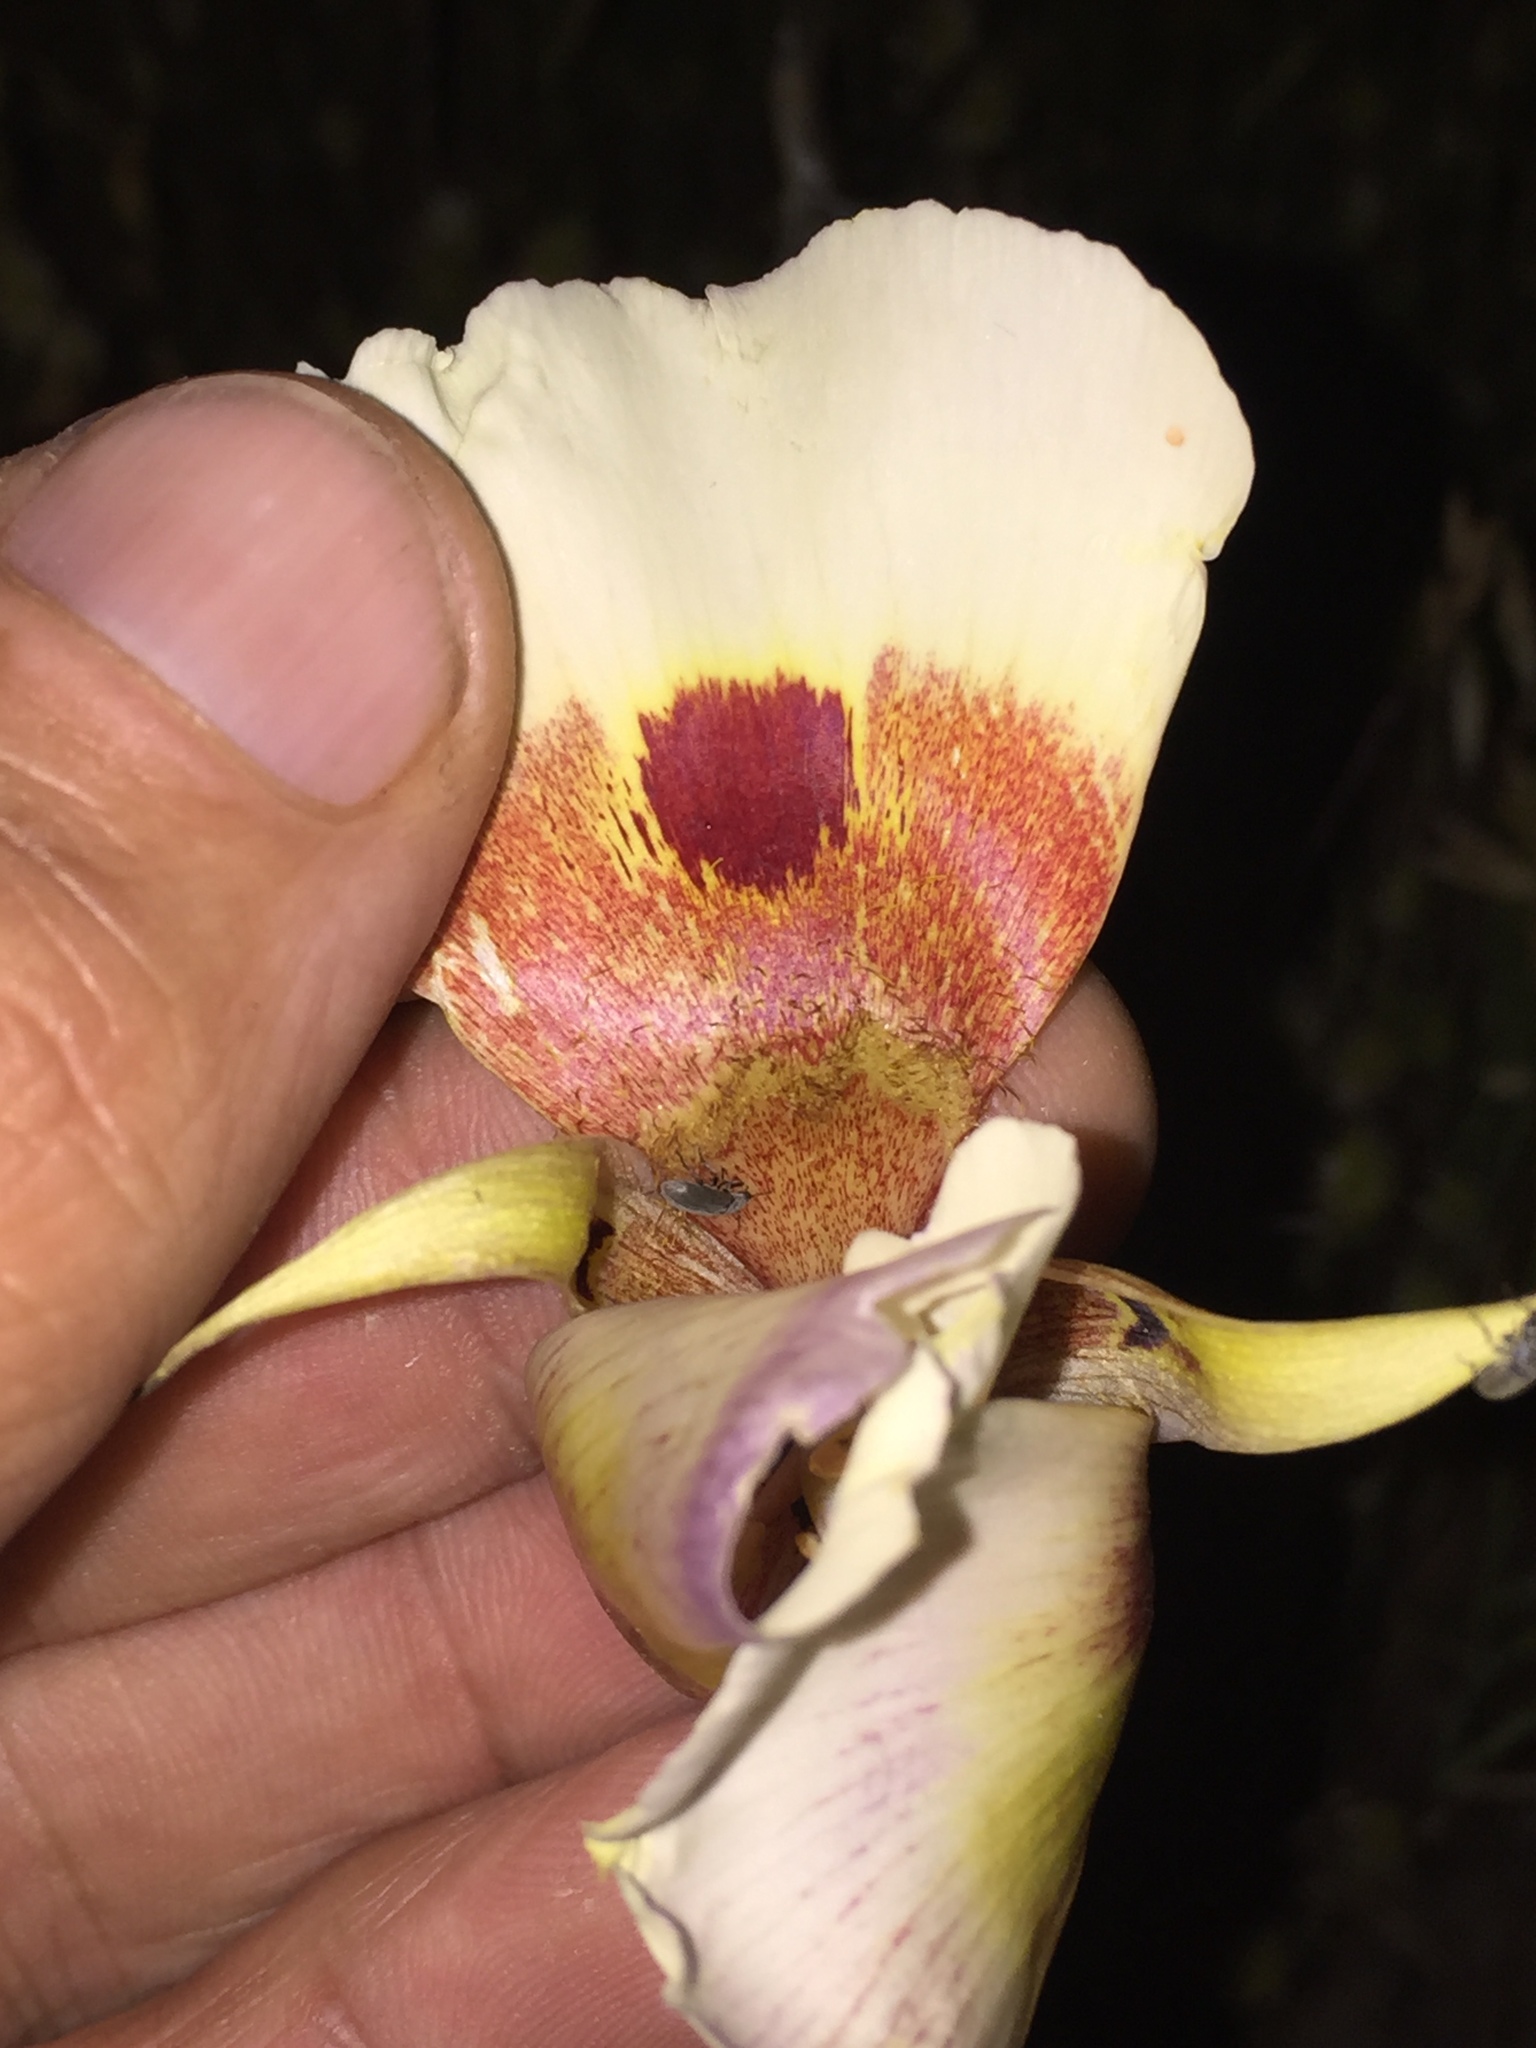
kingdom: Plantae
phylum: Tracheophyta
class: Liliopsida
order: Liliales
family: Liliaceae
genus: Calochortus
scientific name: Calochortus vestae
